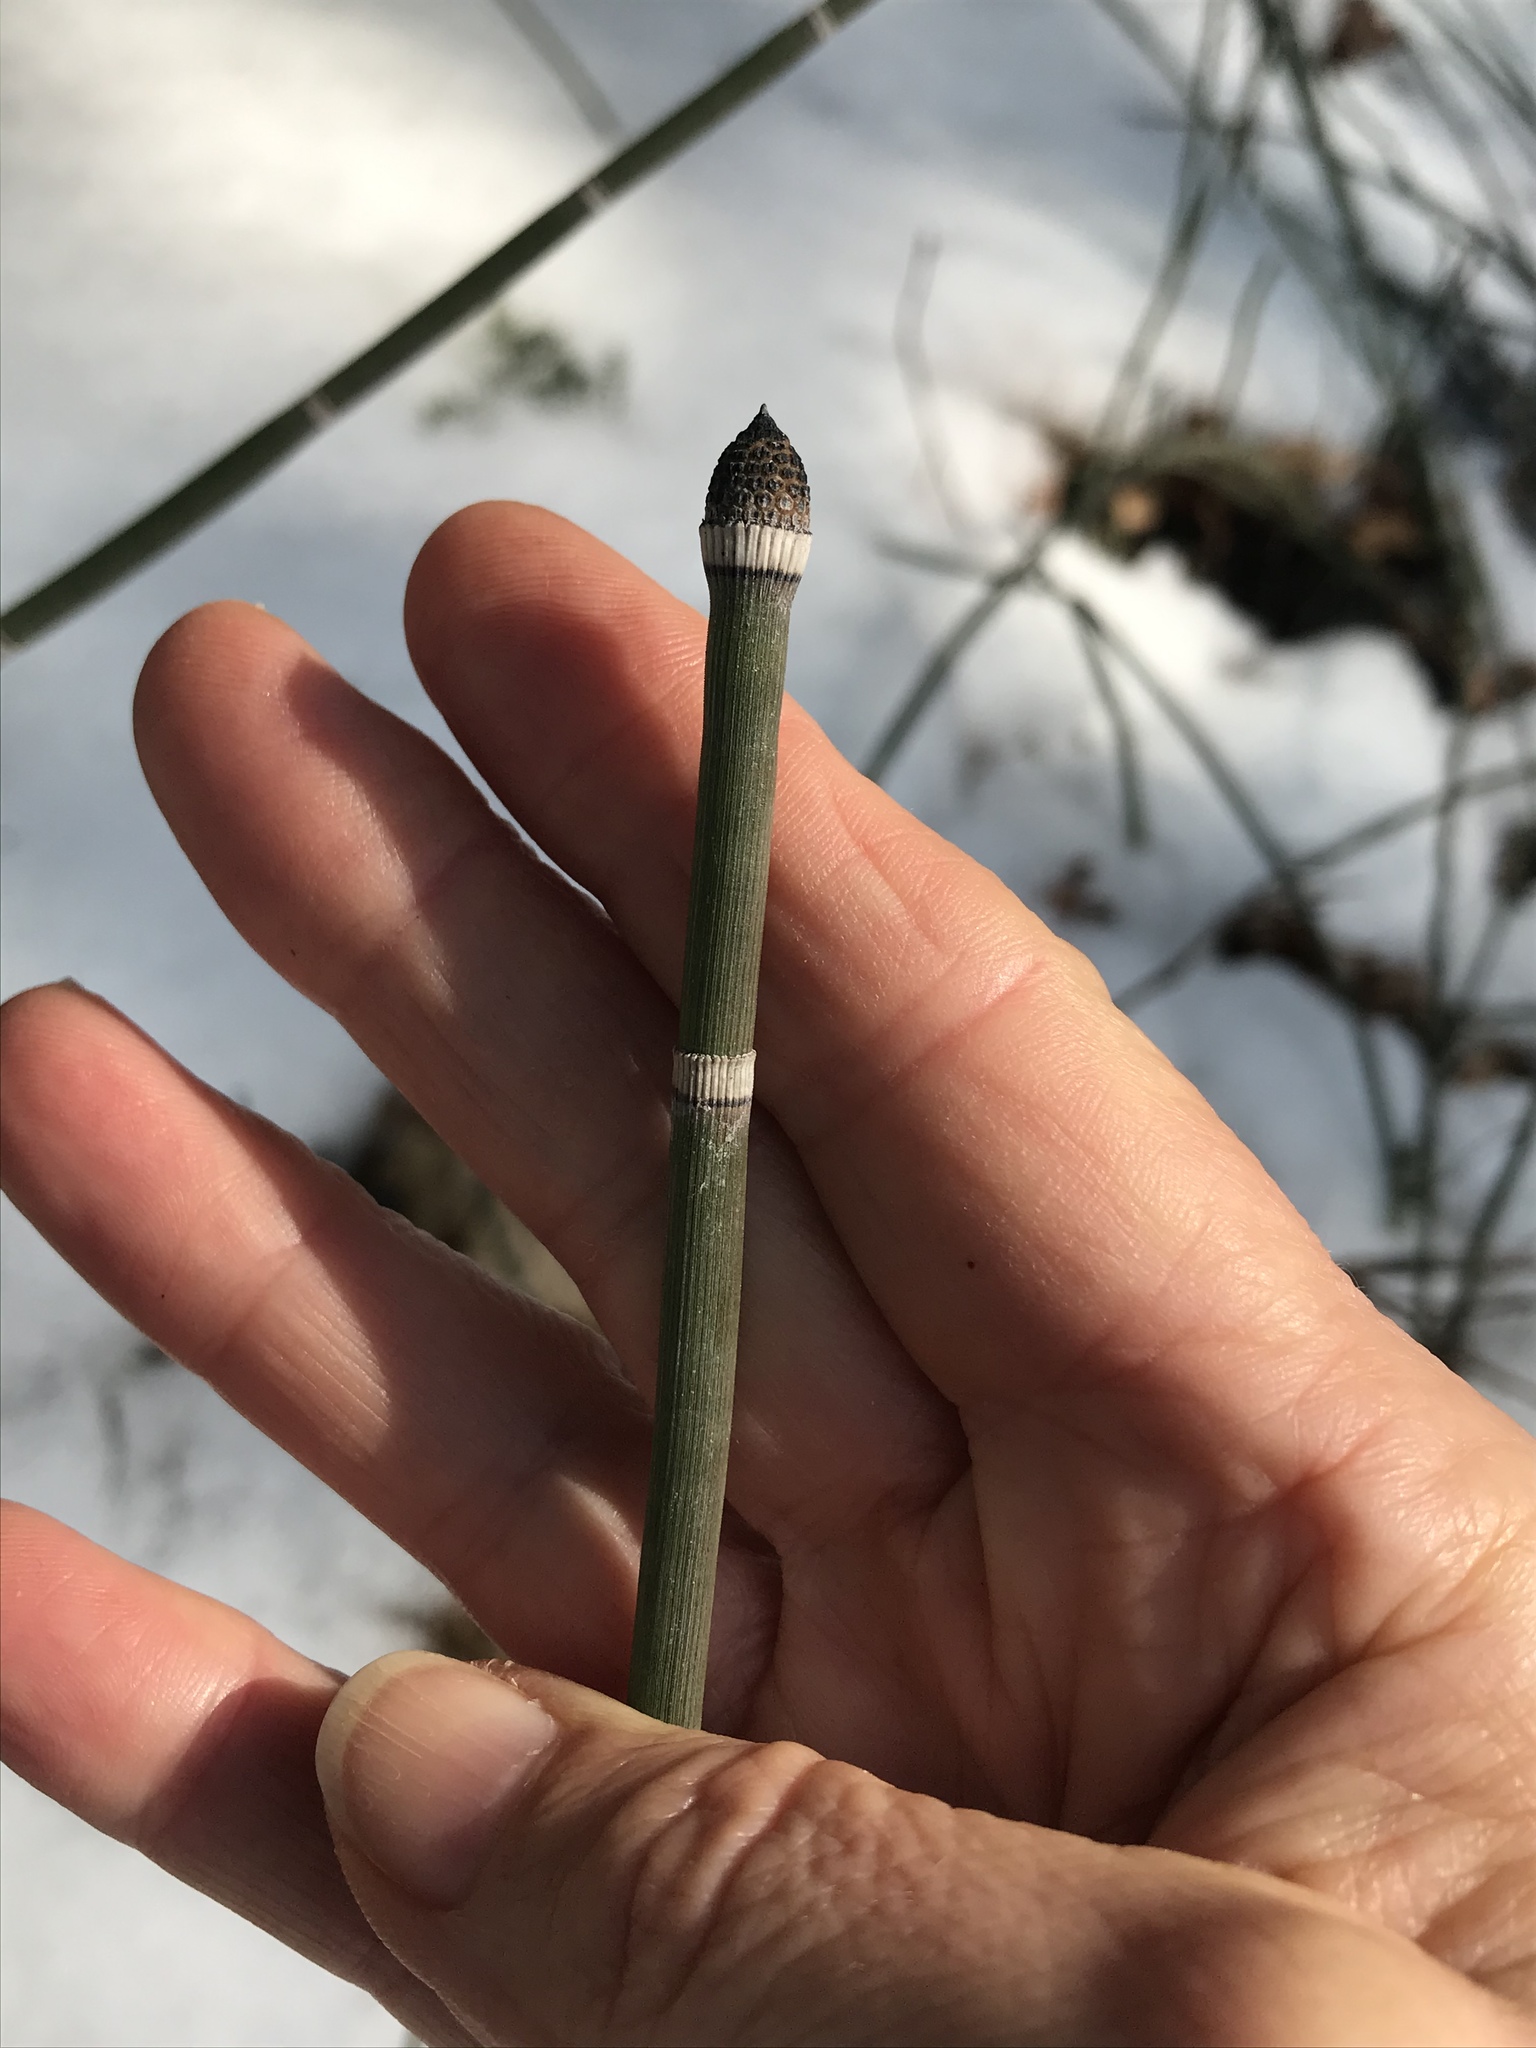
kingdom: Plantae
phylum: Tracheophyta
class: Polypodiopsida
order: Equisetales
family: Equisetaceae
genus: Equisetum
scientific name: Equisetum praealtum
